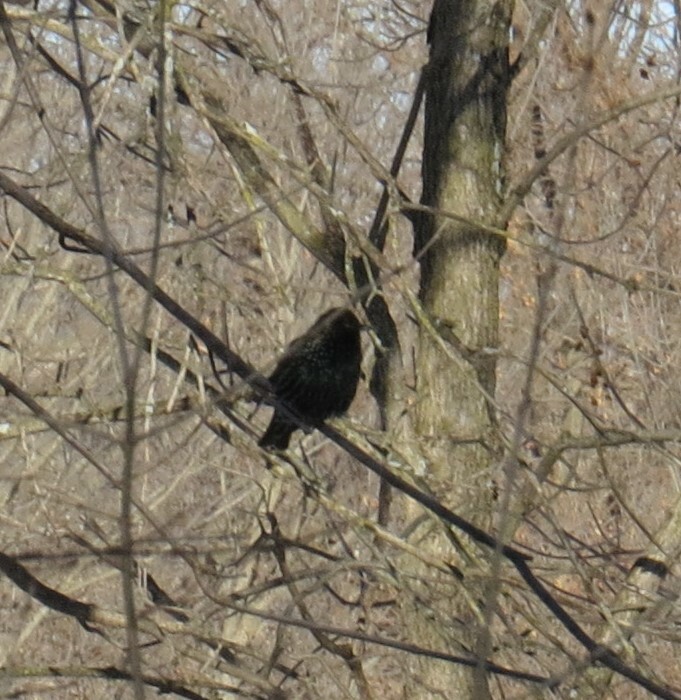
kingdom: Animalia
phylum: Chordata
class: Aves
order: Passeriformes
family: Sturnidae
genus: Sturnus
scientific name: Sturnus vulgaris
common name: Common starling
